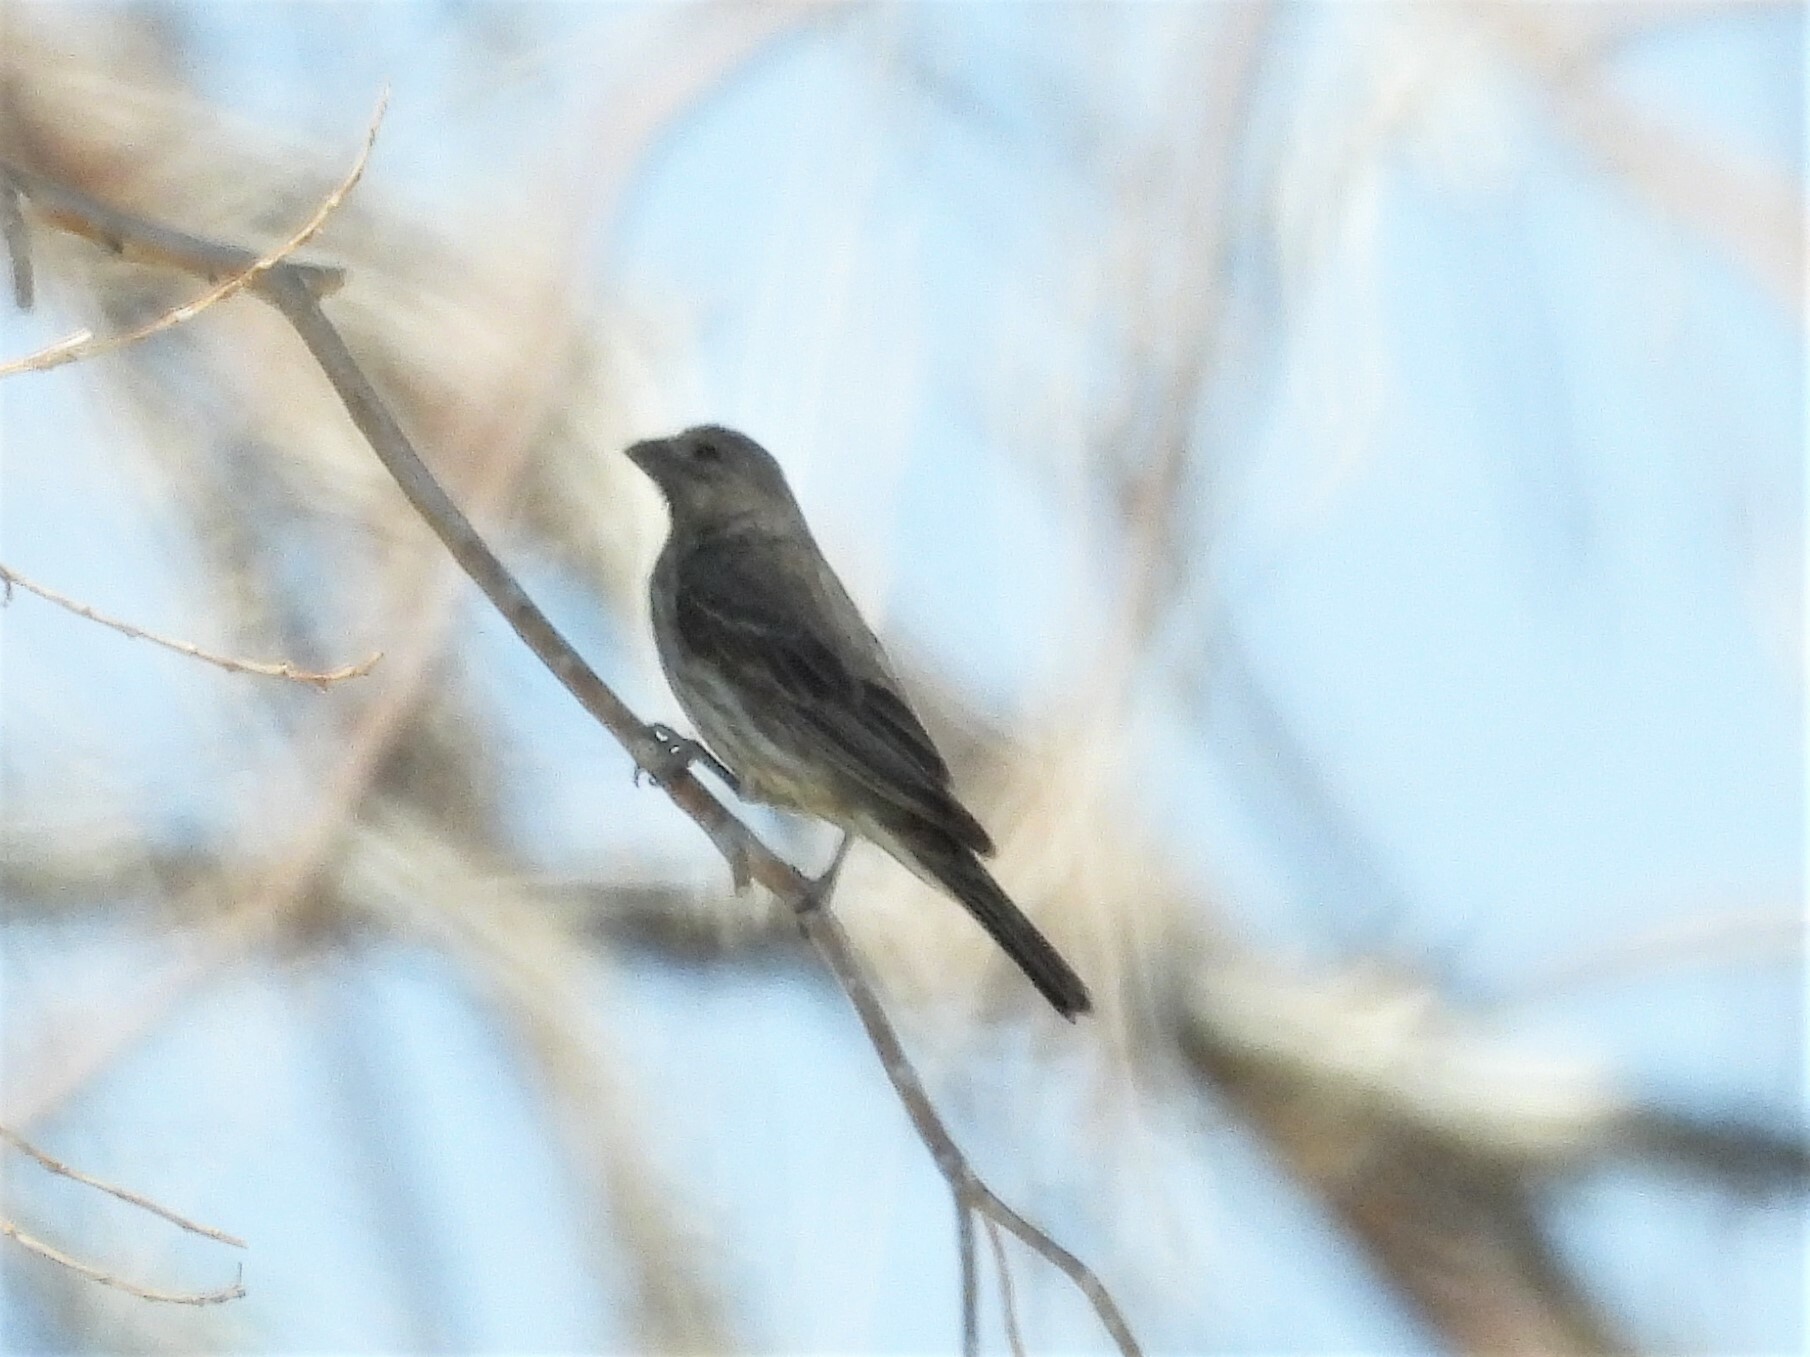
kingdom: Animalia
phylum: Chordata
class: Aves
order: Passeriformes
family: Fringillidae
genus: Haemorhous
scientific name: Haemorhous mexicanus
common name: House finch
